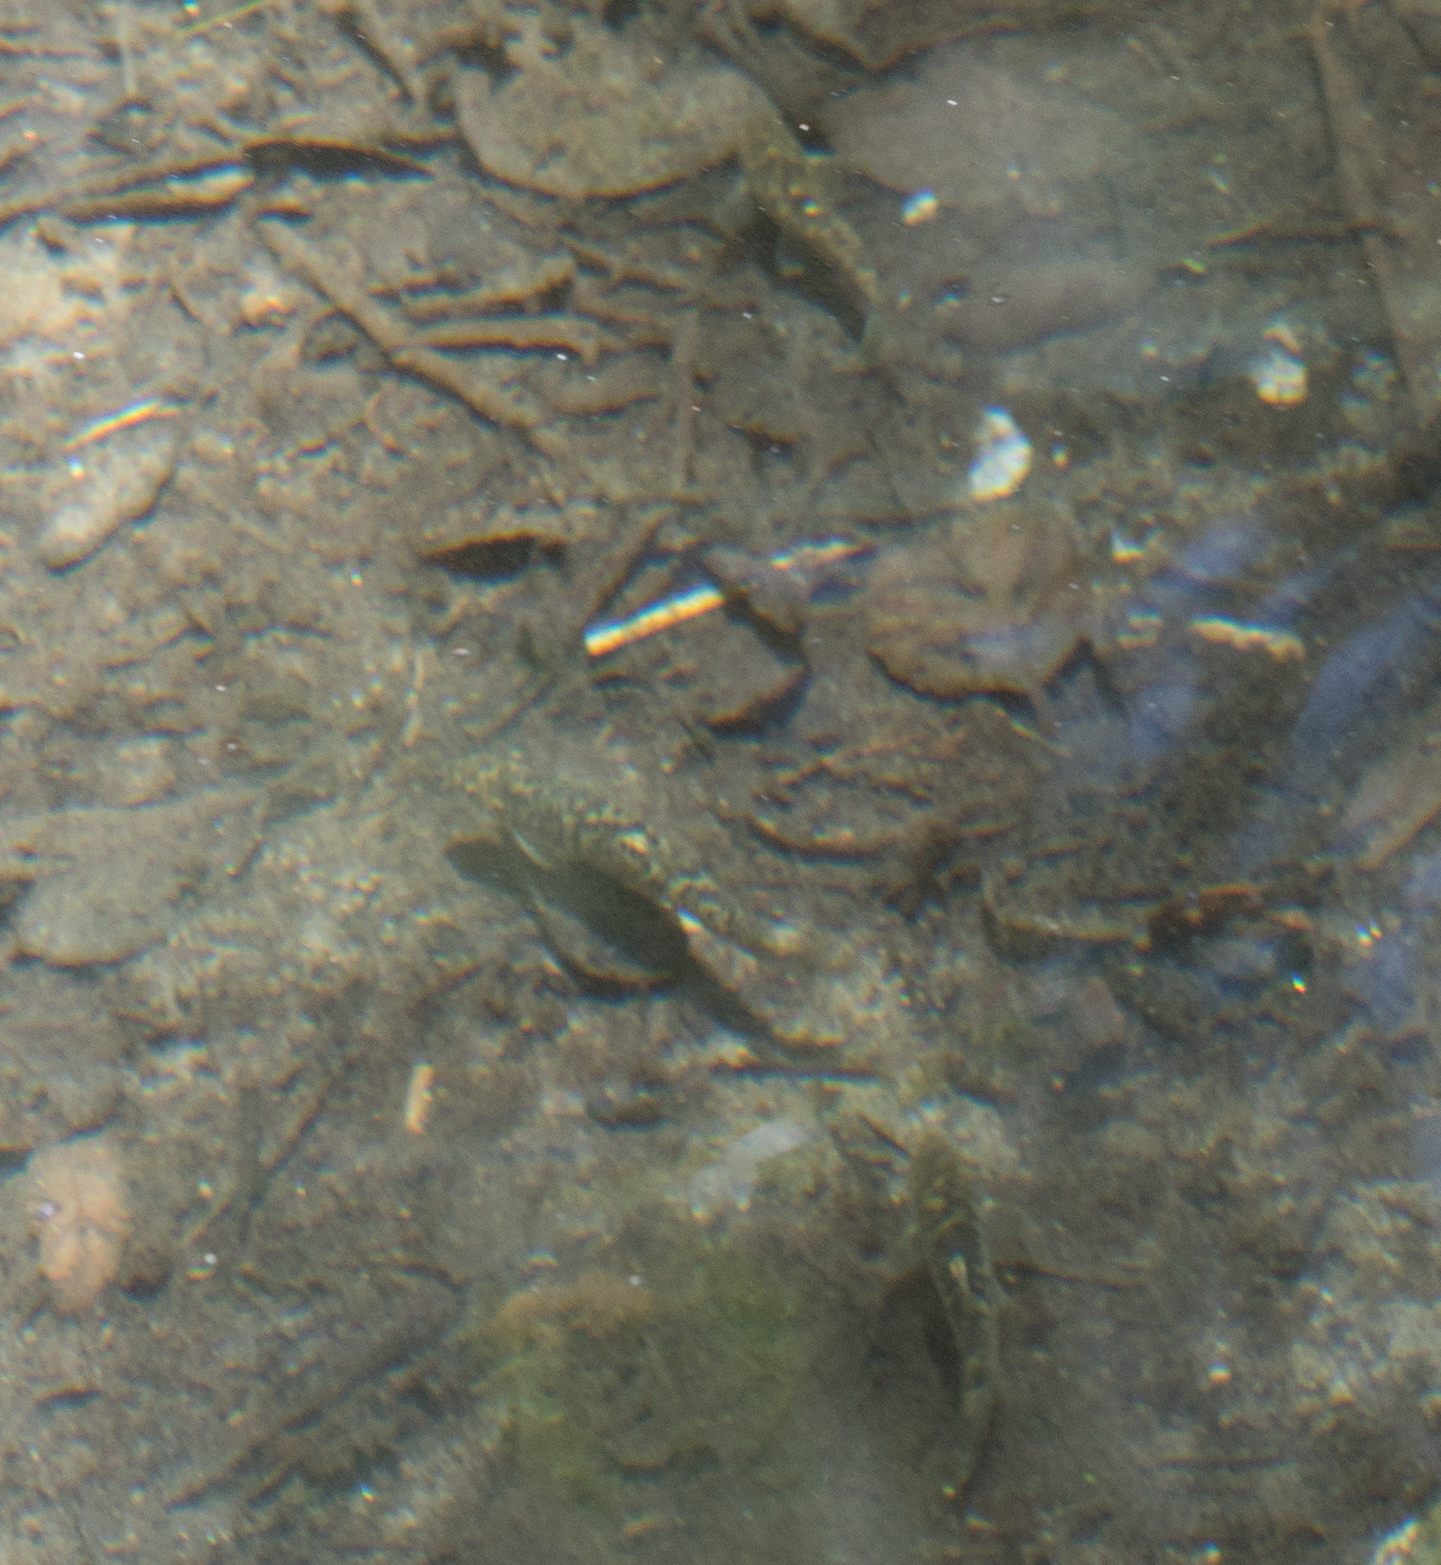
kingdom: Animalia
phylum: Chordata
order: Cypriniformes
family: Catostomidae
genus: Catostomus
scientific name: Catostomus santaanae
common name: Santa ana sucker
